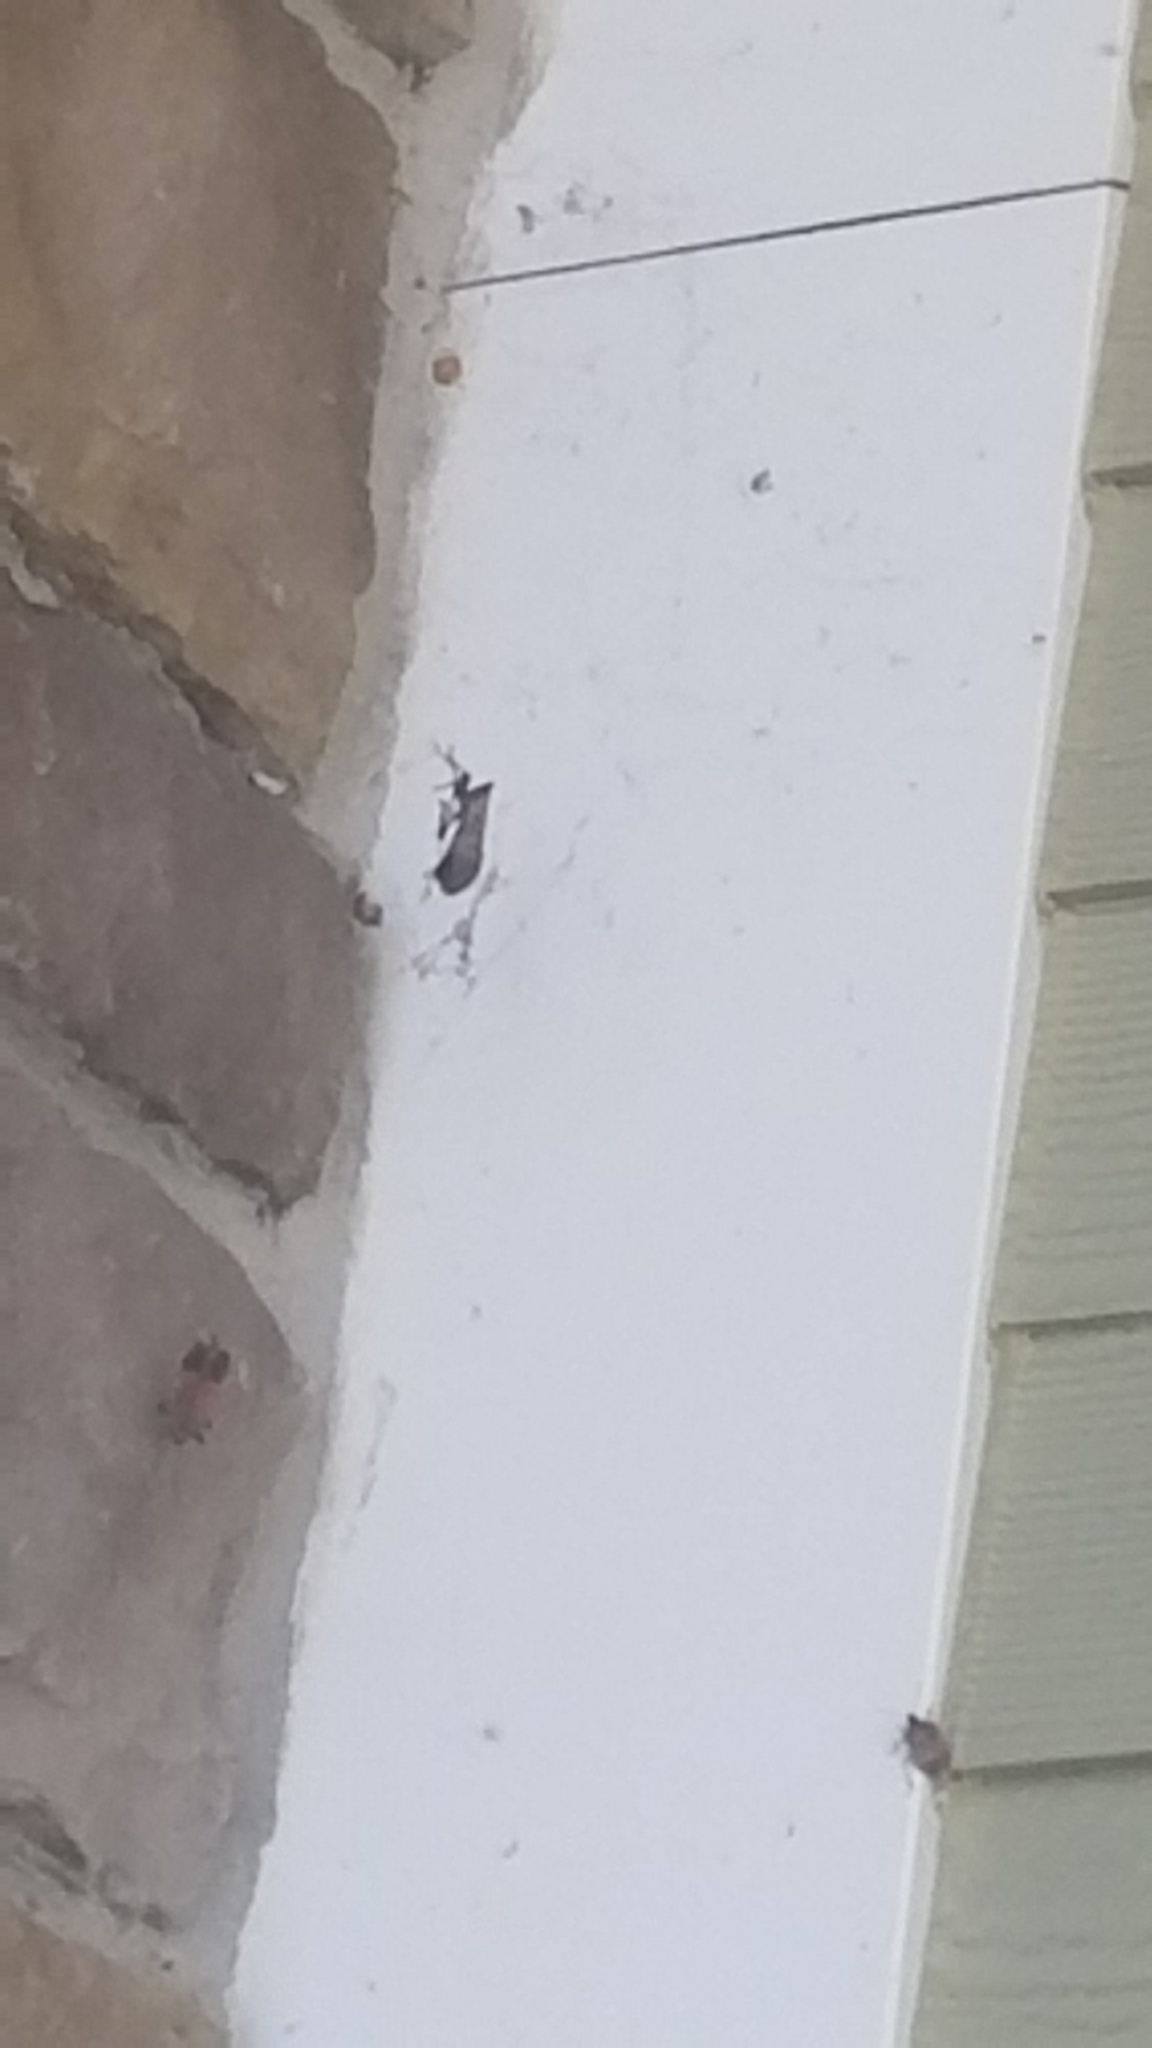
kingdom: Animalia
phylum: Arthropoda
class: Insecta
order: Hemiptera
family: Fulgoridae
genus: Lycorma
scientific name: Lycorma delicatula
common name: Spotted lanternfly
